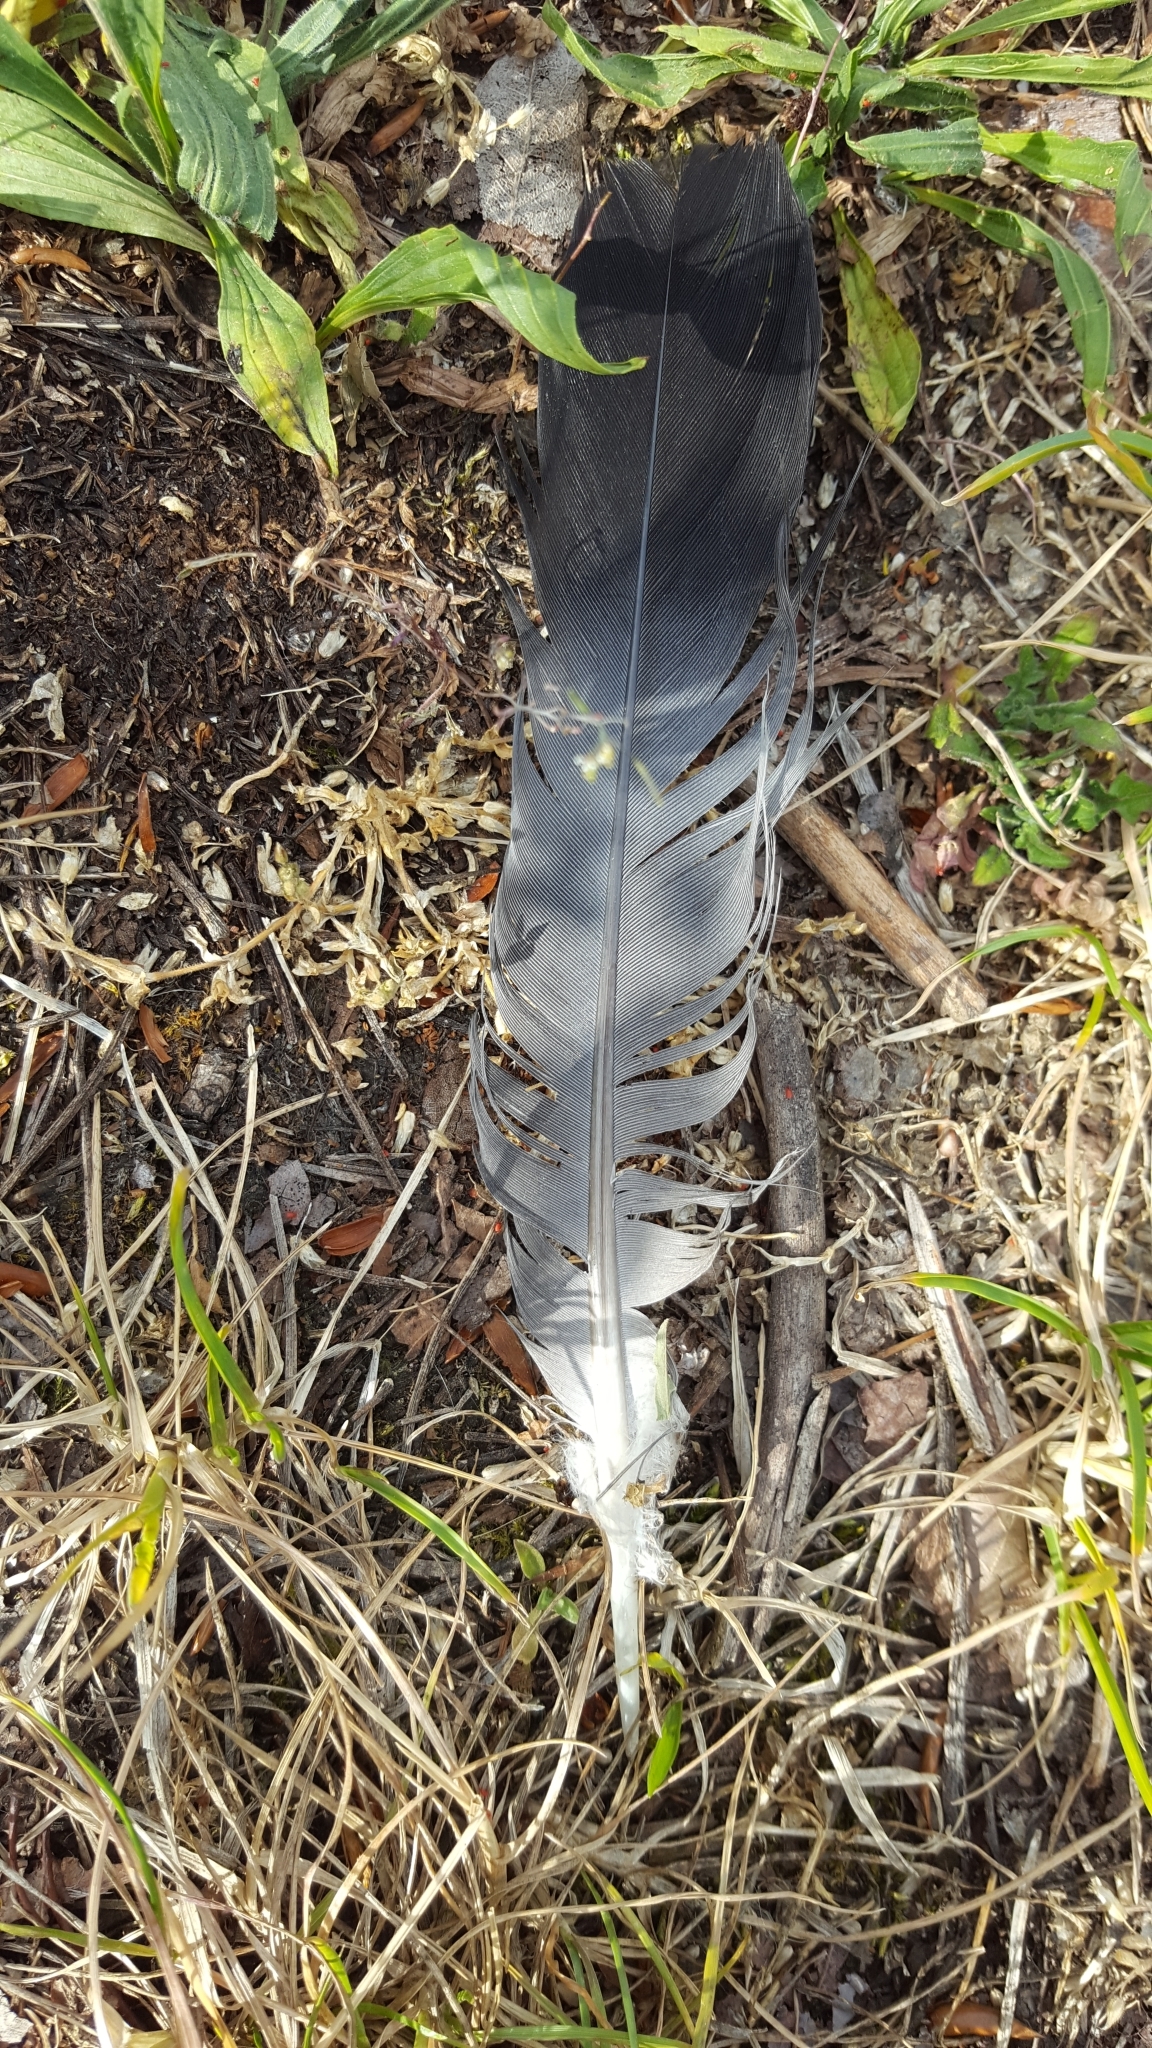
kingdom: Animalia
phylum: Chordata
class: Aves
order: Columbiformes
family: Columbidae
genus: Columba
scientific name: Columba palumbus
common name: Common wood pigeon
